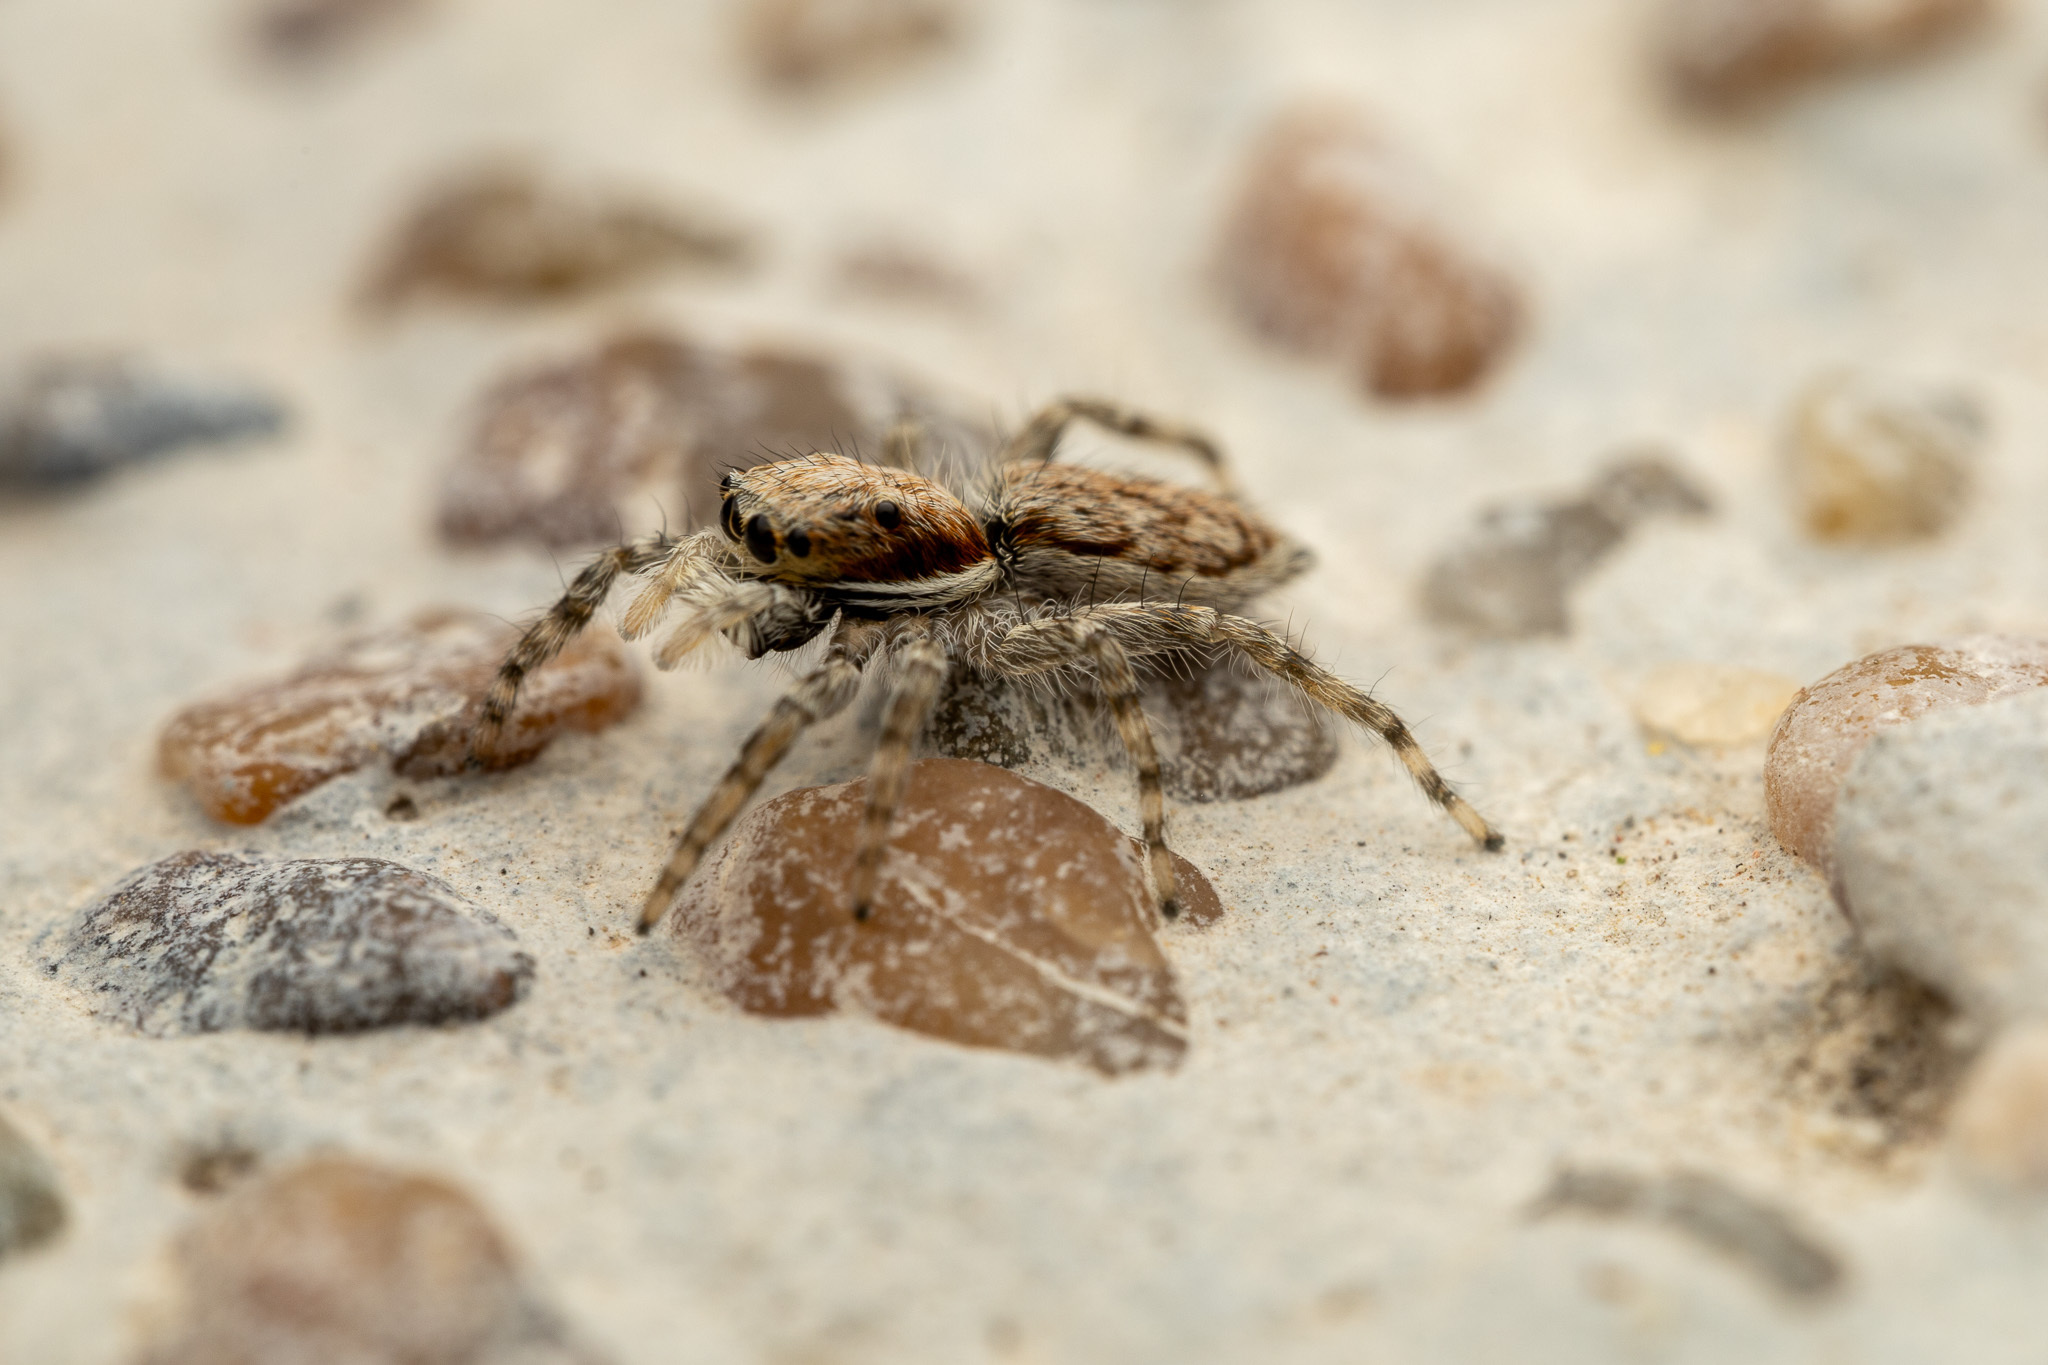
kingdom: Animalia
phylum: Arthropoda
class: Arachnida
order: Araneae
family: Salticidae
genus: Menemerus
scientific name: Menemerus bivittatus
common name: Gray wall jumper
